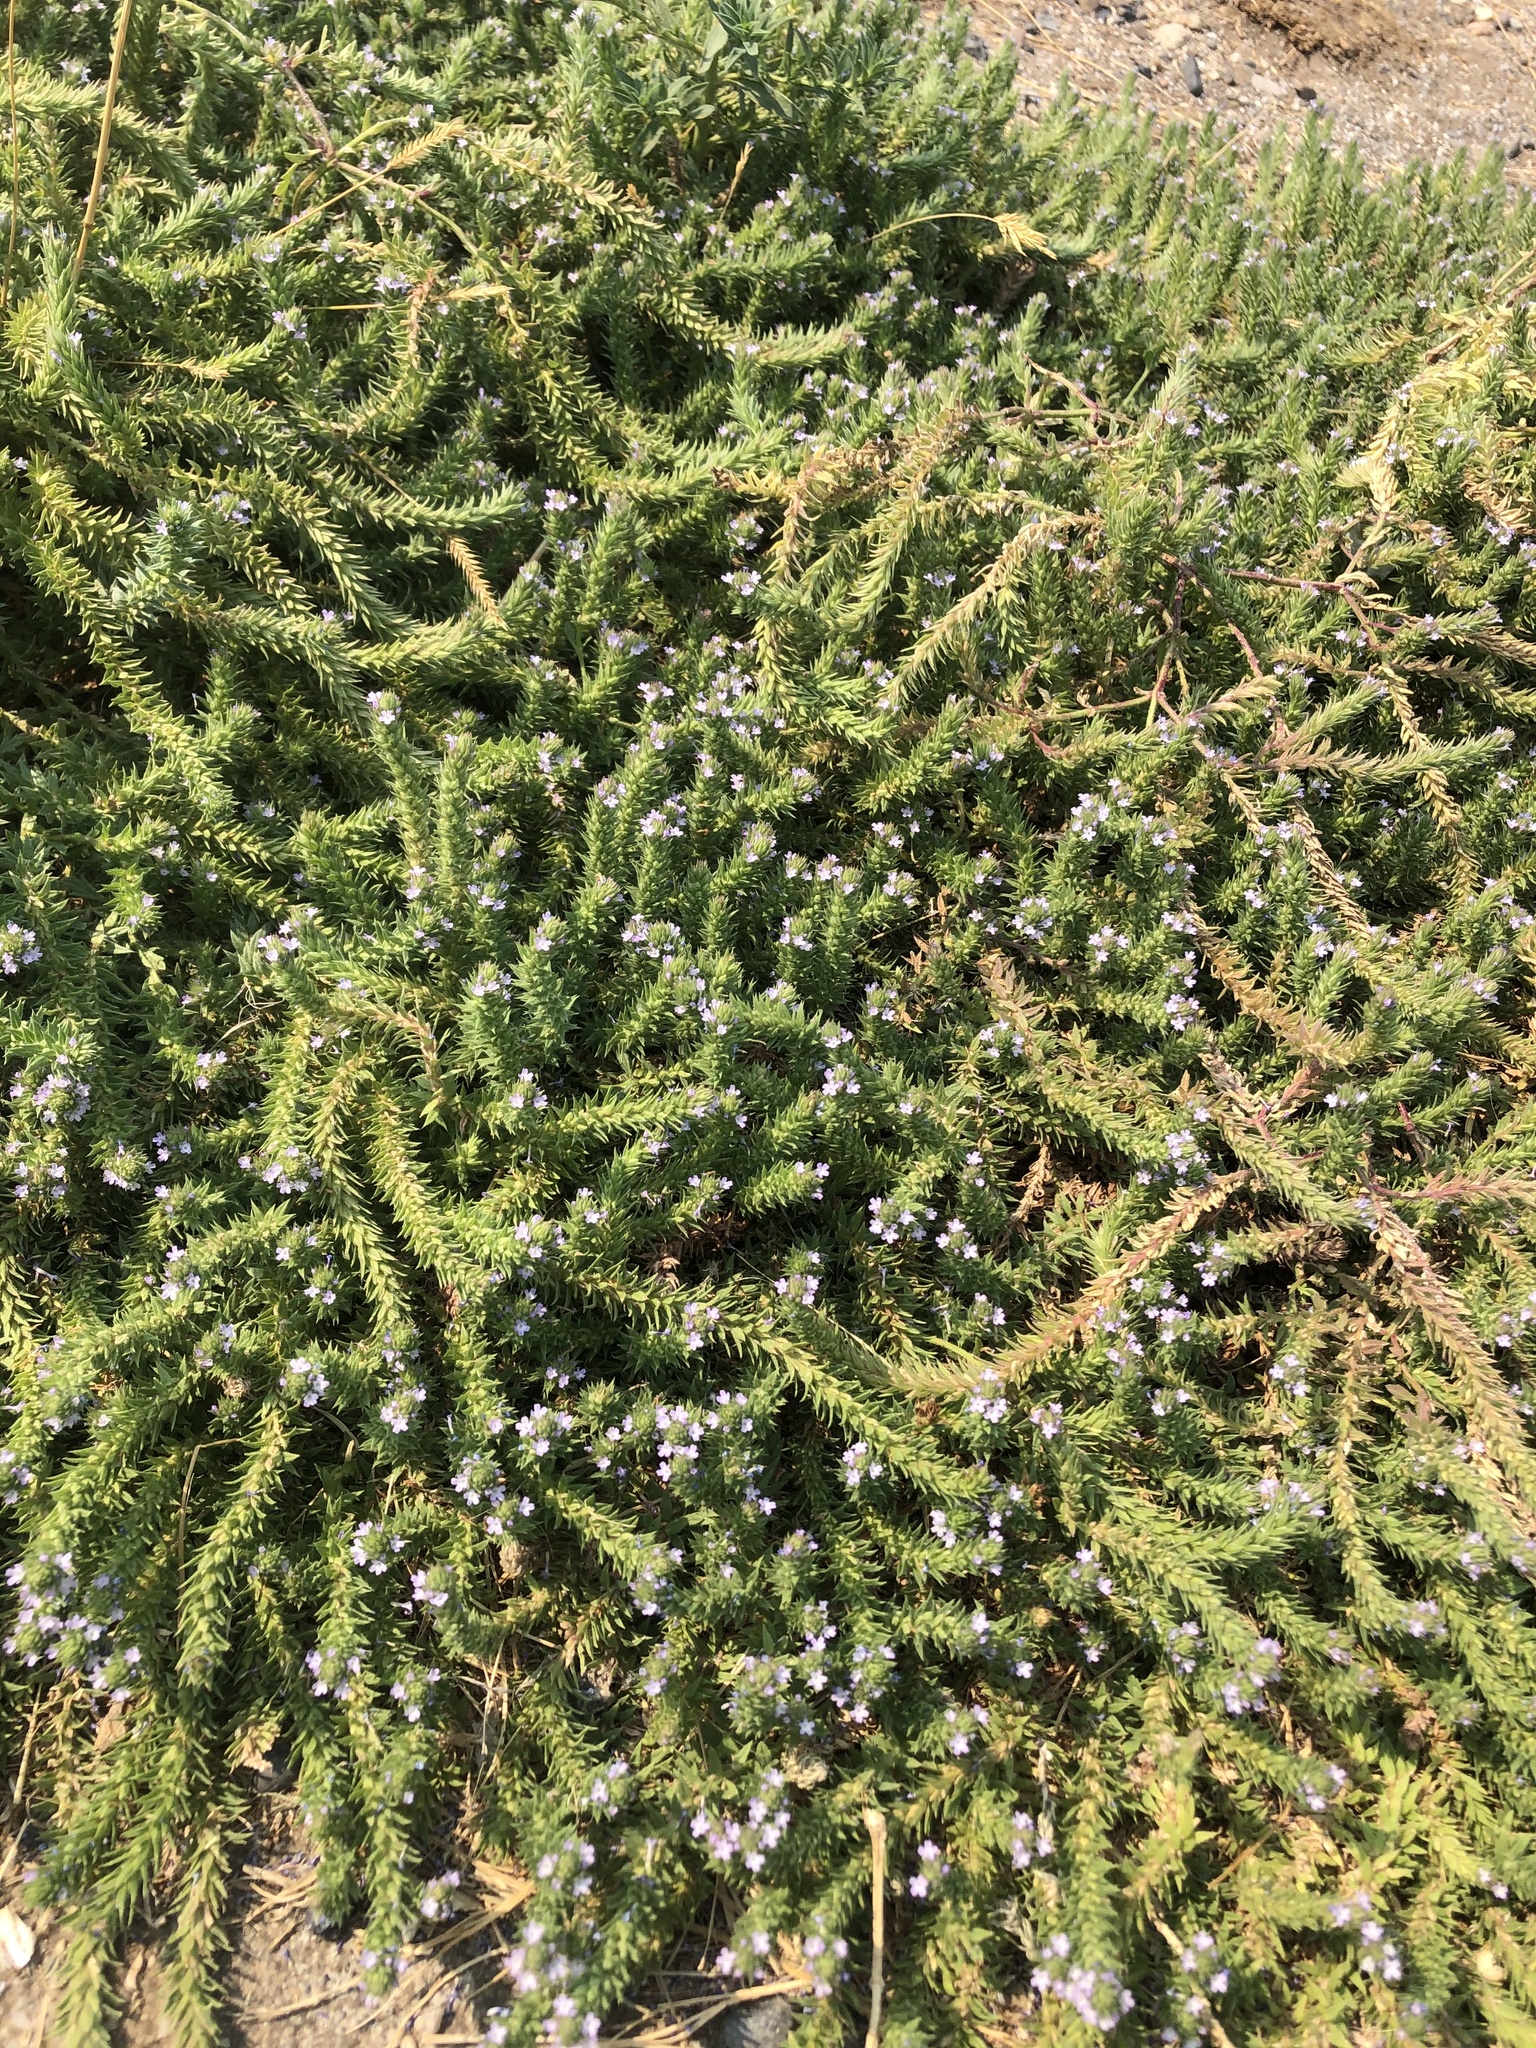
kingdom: Plantae
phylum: Tracheophyta
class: Magnoliopsida
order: Lamiales
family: Verbenaceae
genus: Verbena
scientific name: Verbena bracteata
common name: Bracted vervain
